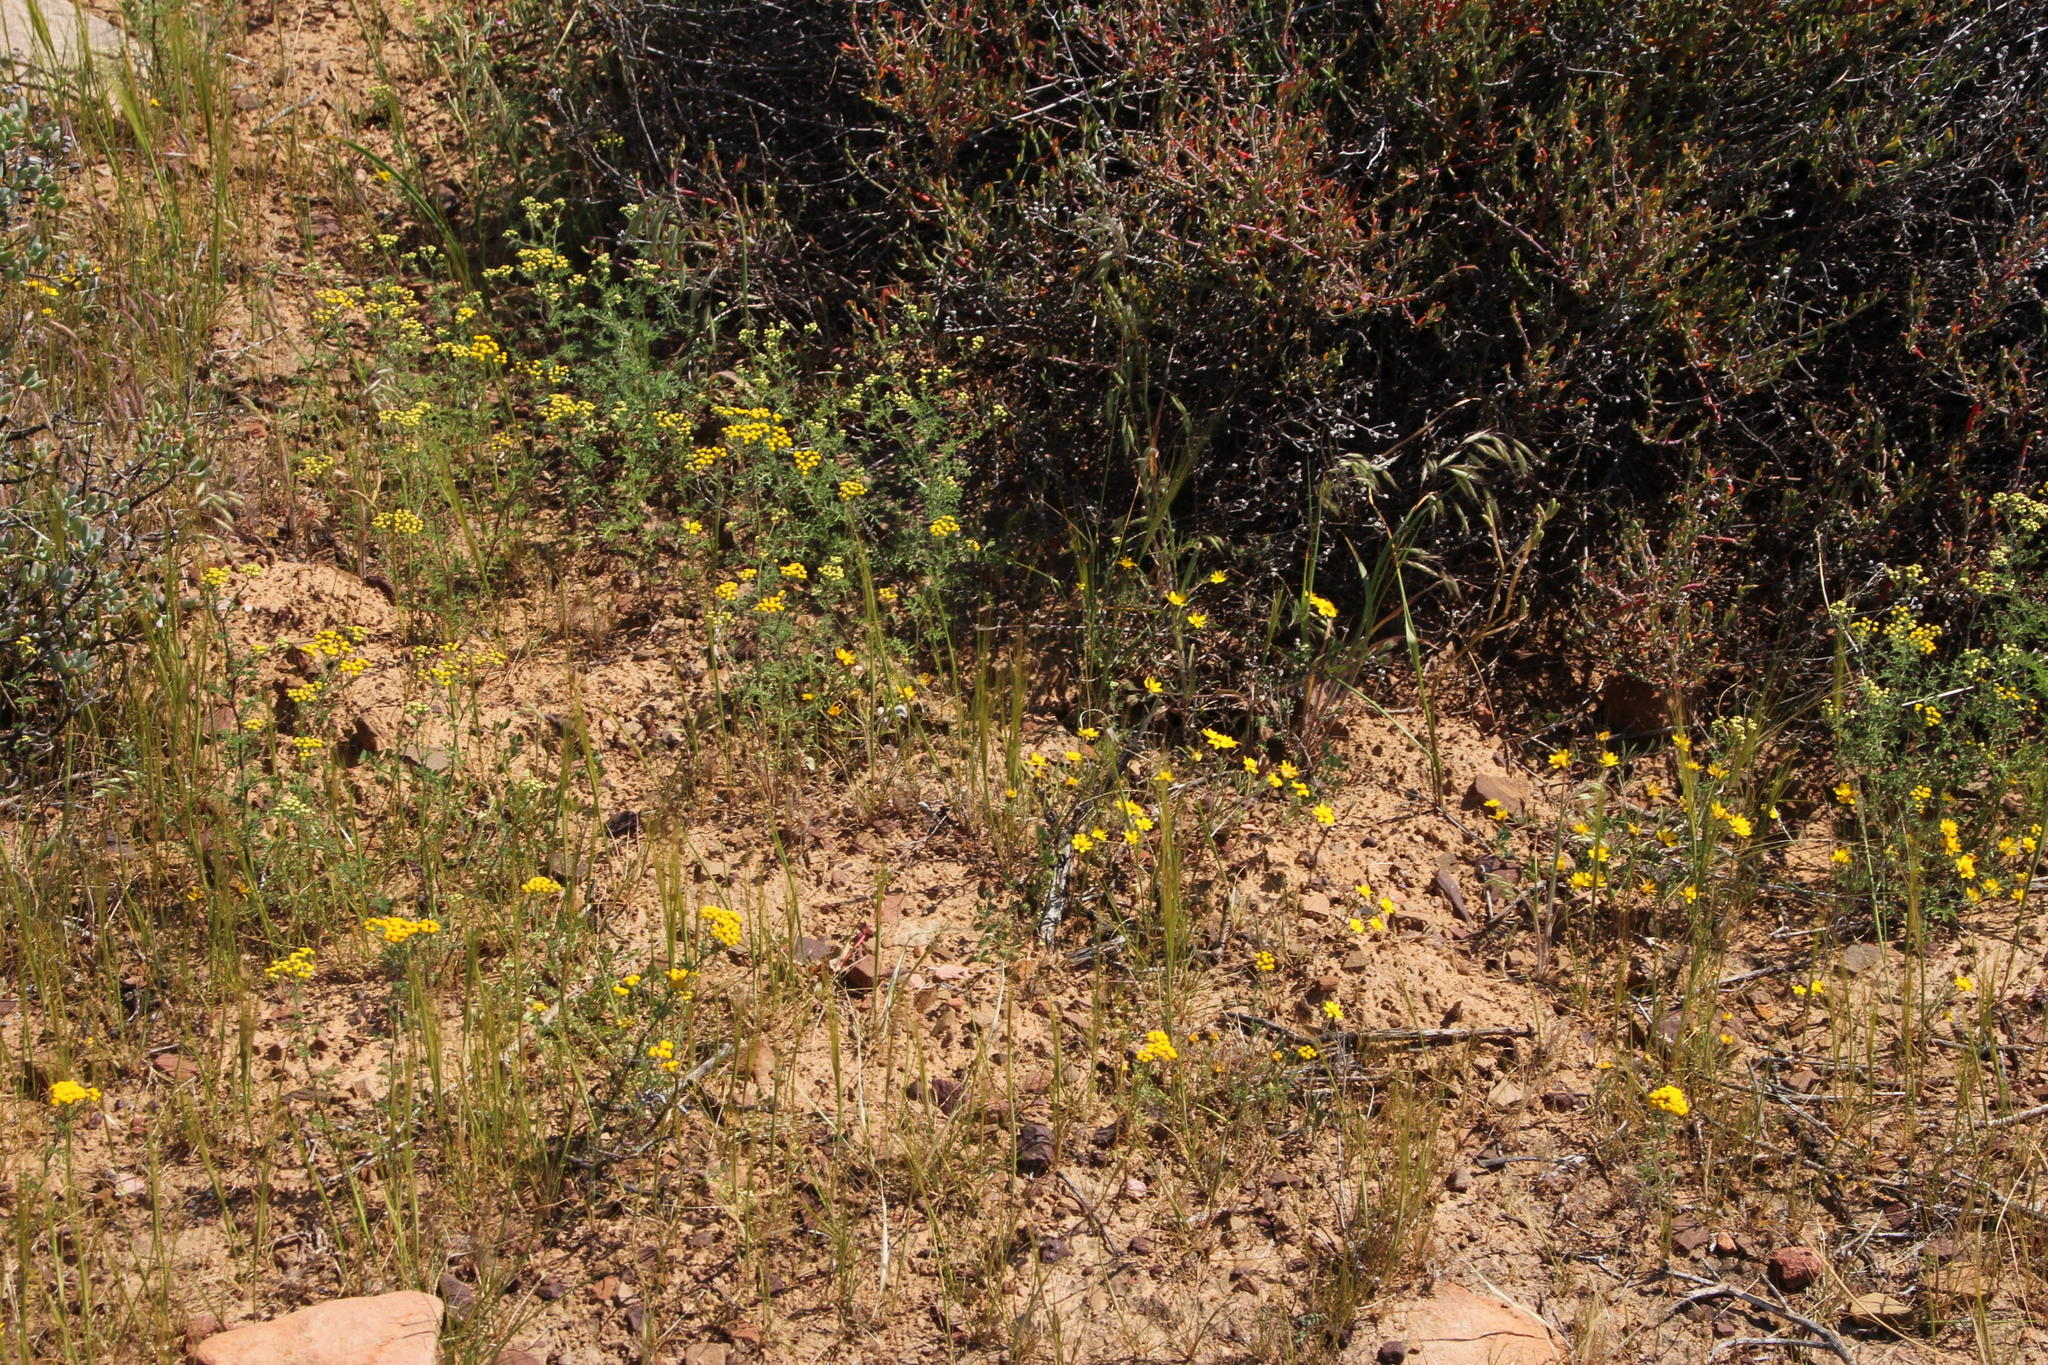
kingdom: Plantae
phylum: Tracheophyta
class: Magnoliopsida
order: Asterales
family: Asteraceae
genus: Oncosiphon
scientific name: Oncosiphon suffruticosus
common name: Shrubby mayweed
